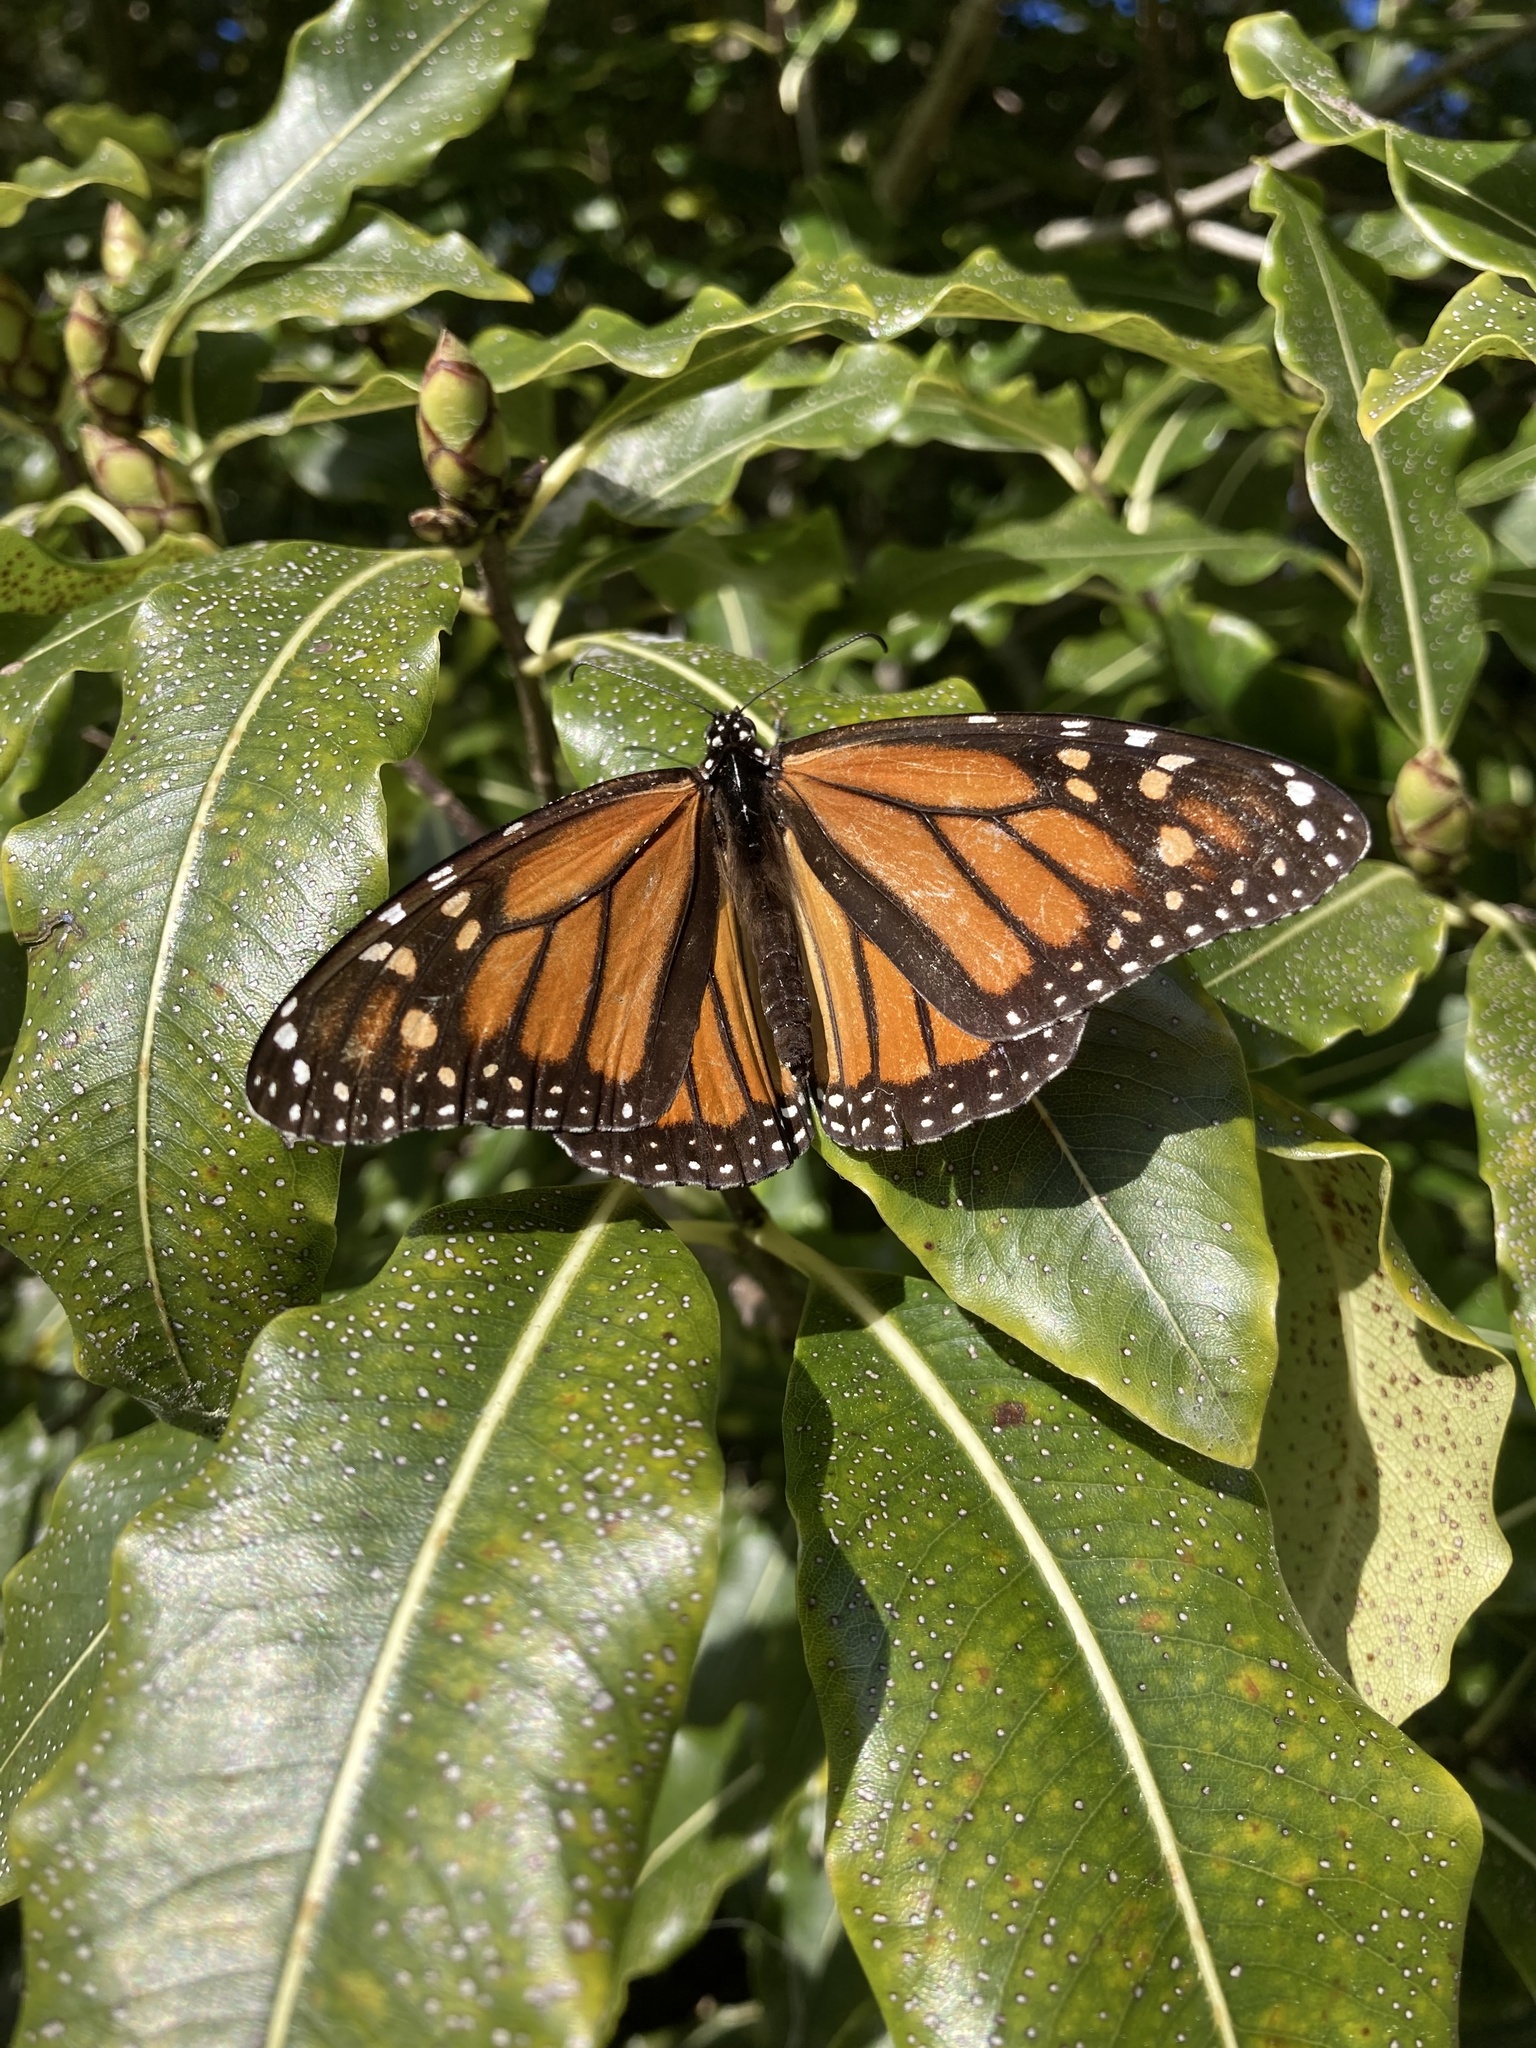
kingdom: Animalia
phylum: Arthropoda
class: Insecta
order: Lepidoptera
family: Nymphalidae
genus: Danaus
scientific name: Danaus plexippus
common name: Monarch
